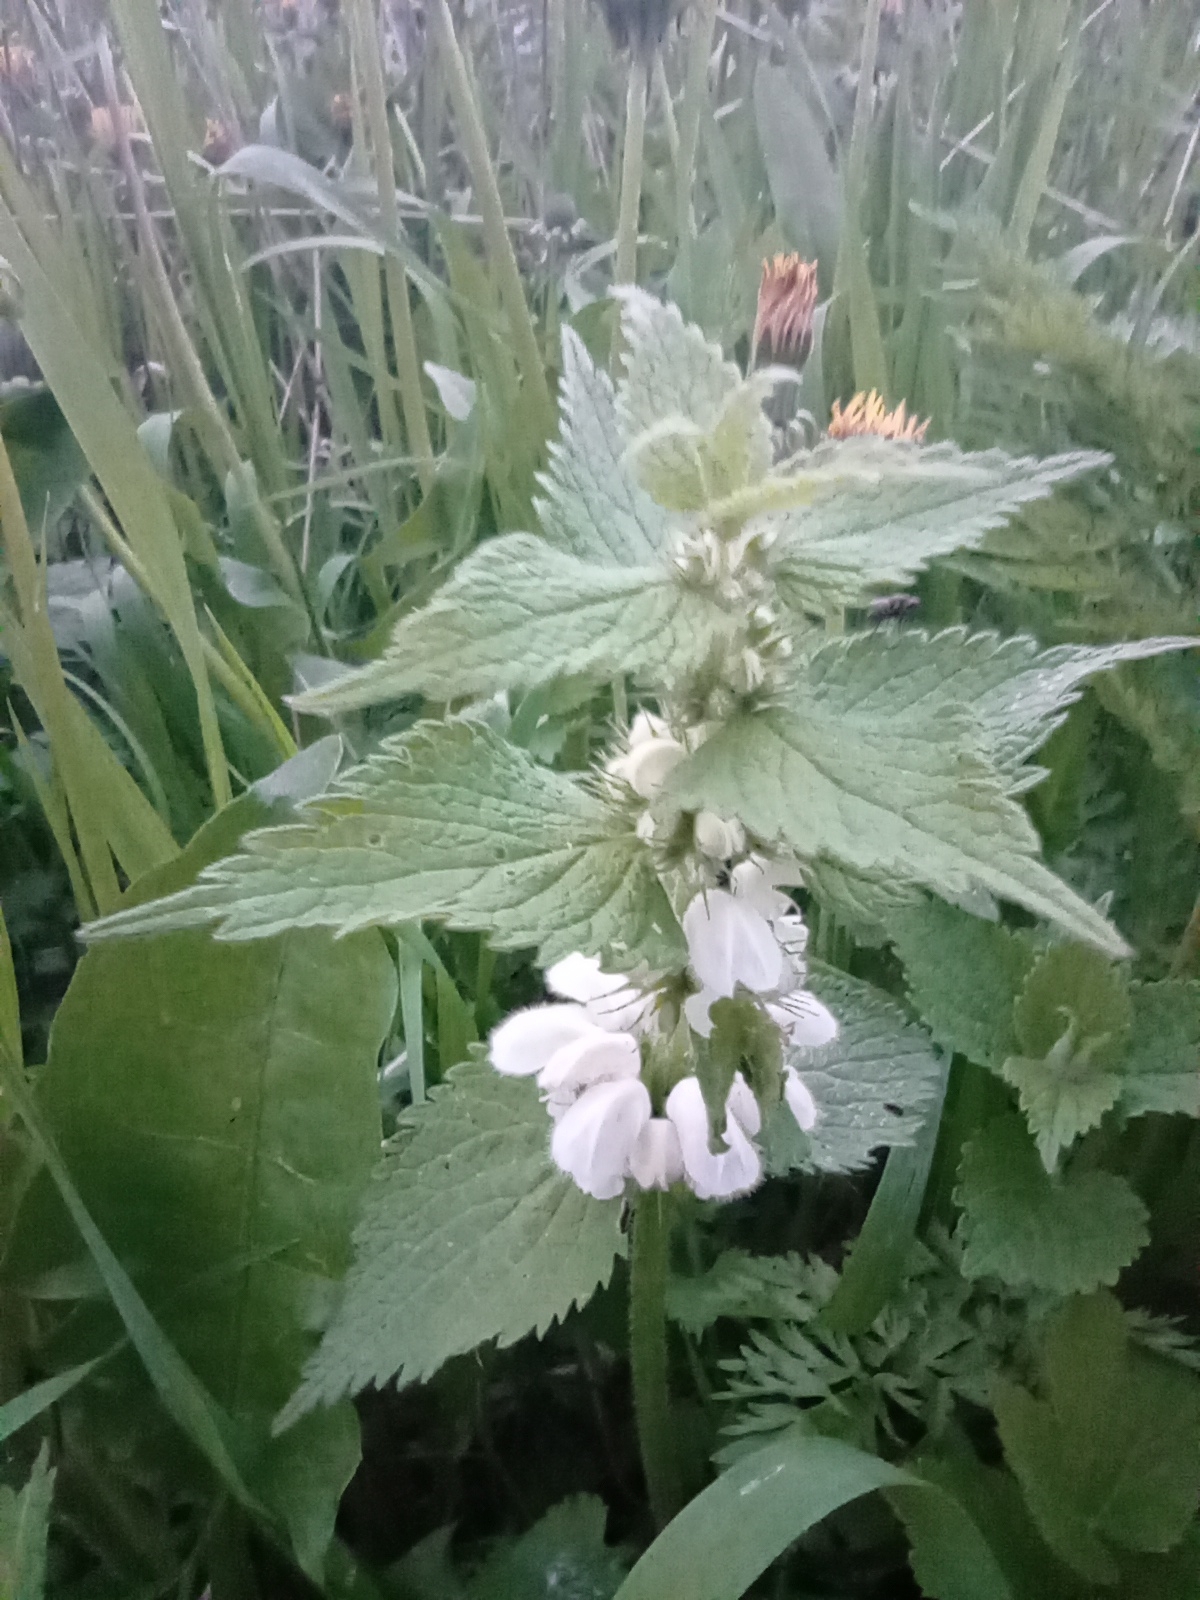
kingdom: Plantae
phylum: Tracheophyta
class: Magnoliopsida
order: Lamiales
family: Lamiaceae
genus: Lamium
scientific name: Lamium album
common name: White dead-nettle
